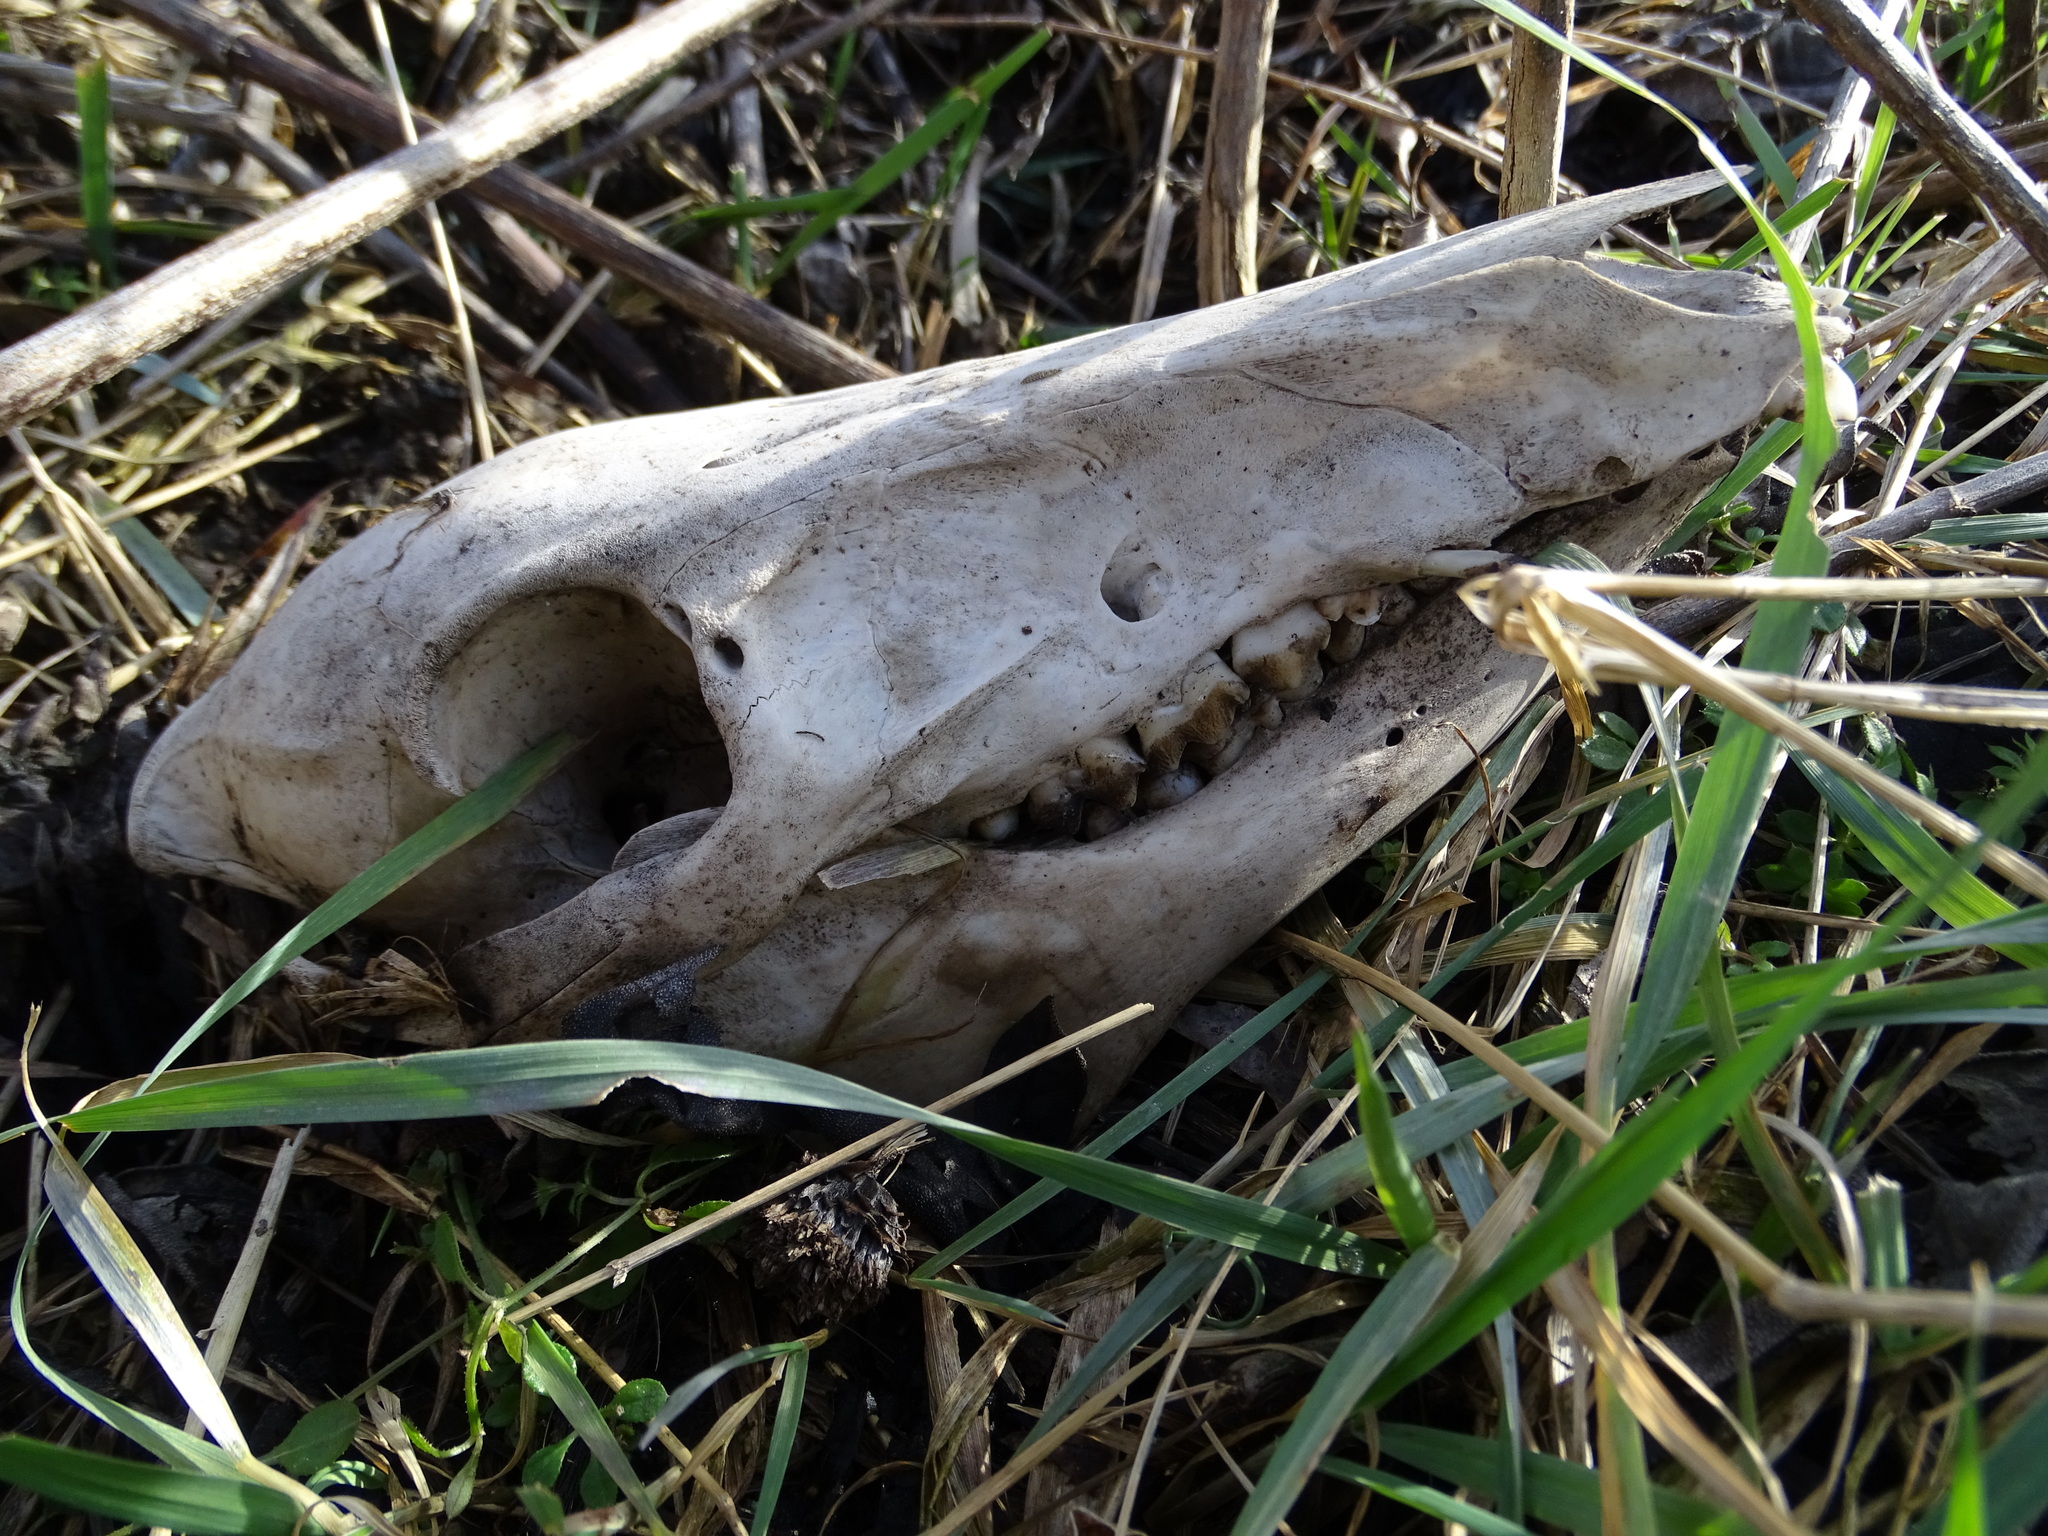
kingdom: Animalia
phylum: Chordata
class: Mammalia
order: Artiodactyla
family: Suidae
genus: Sus
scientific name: Sus scrofa
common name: Wild boar
